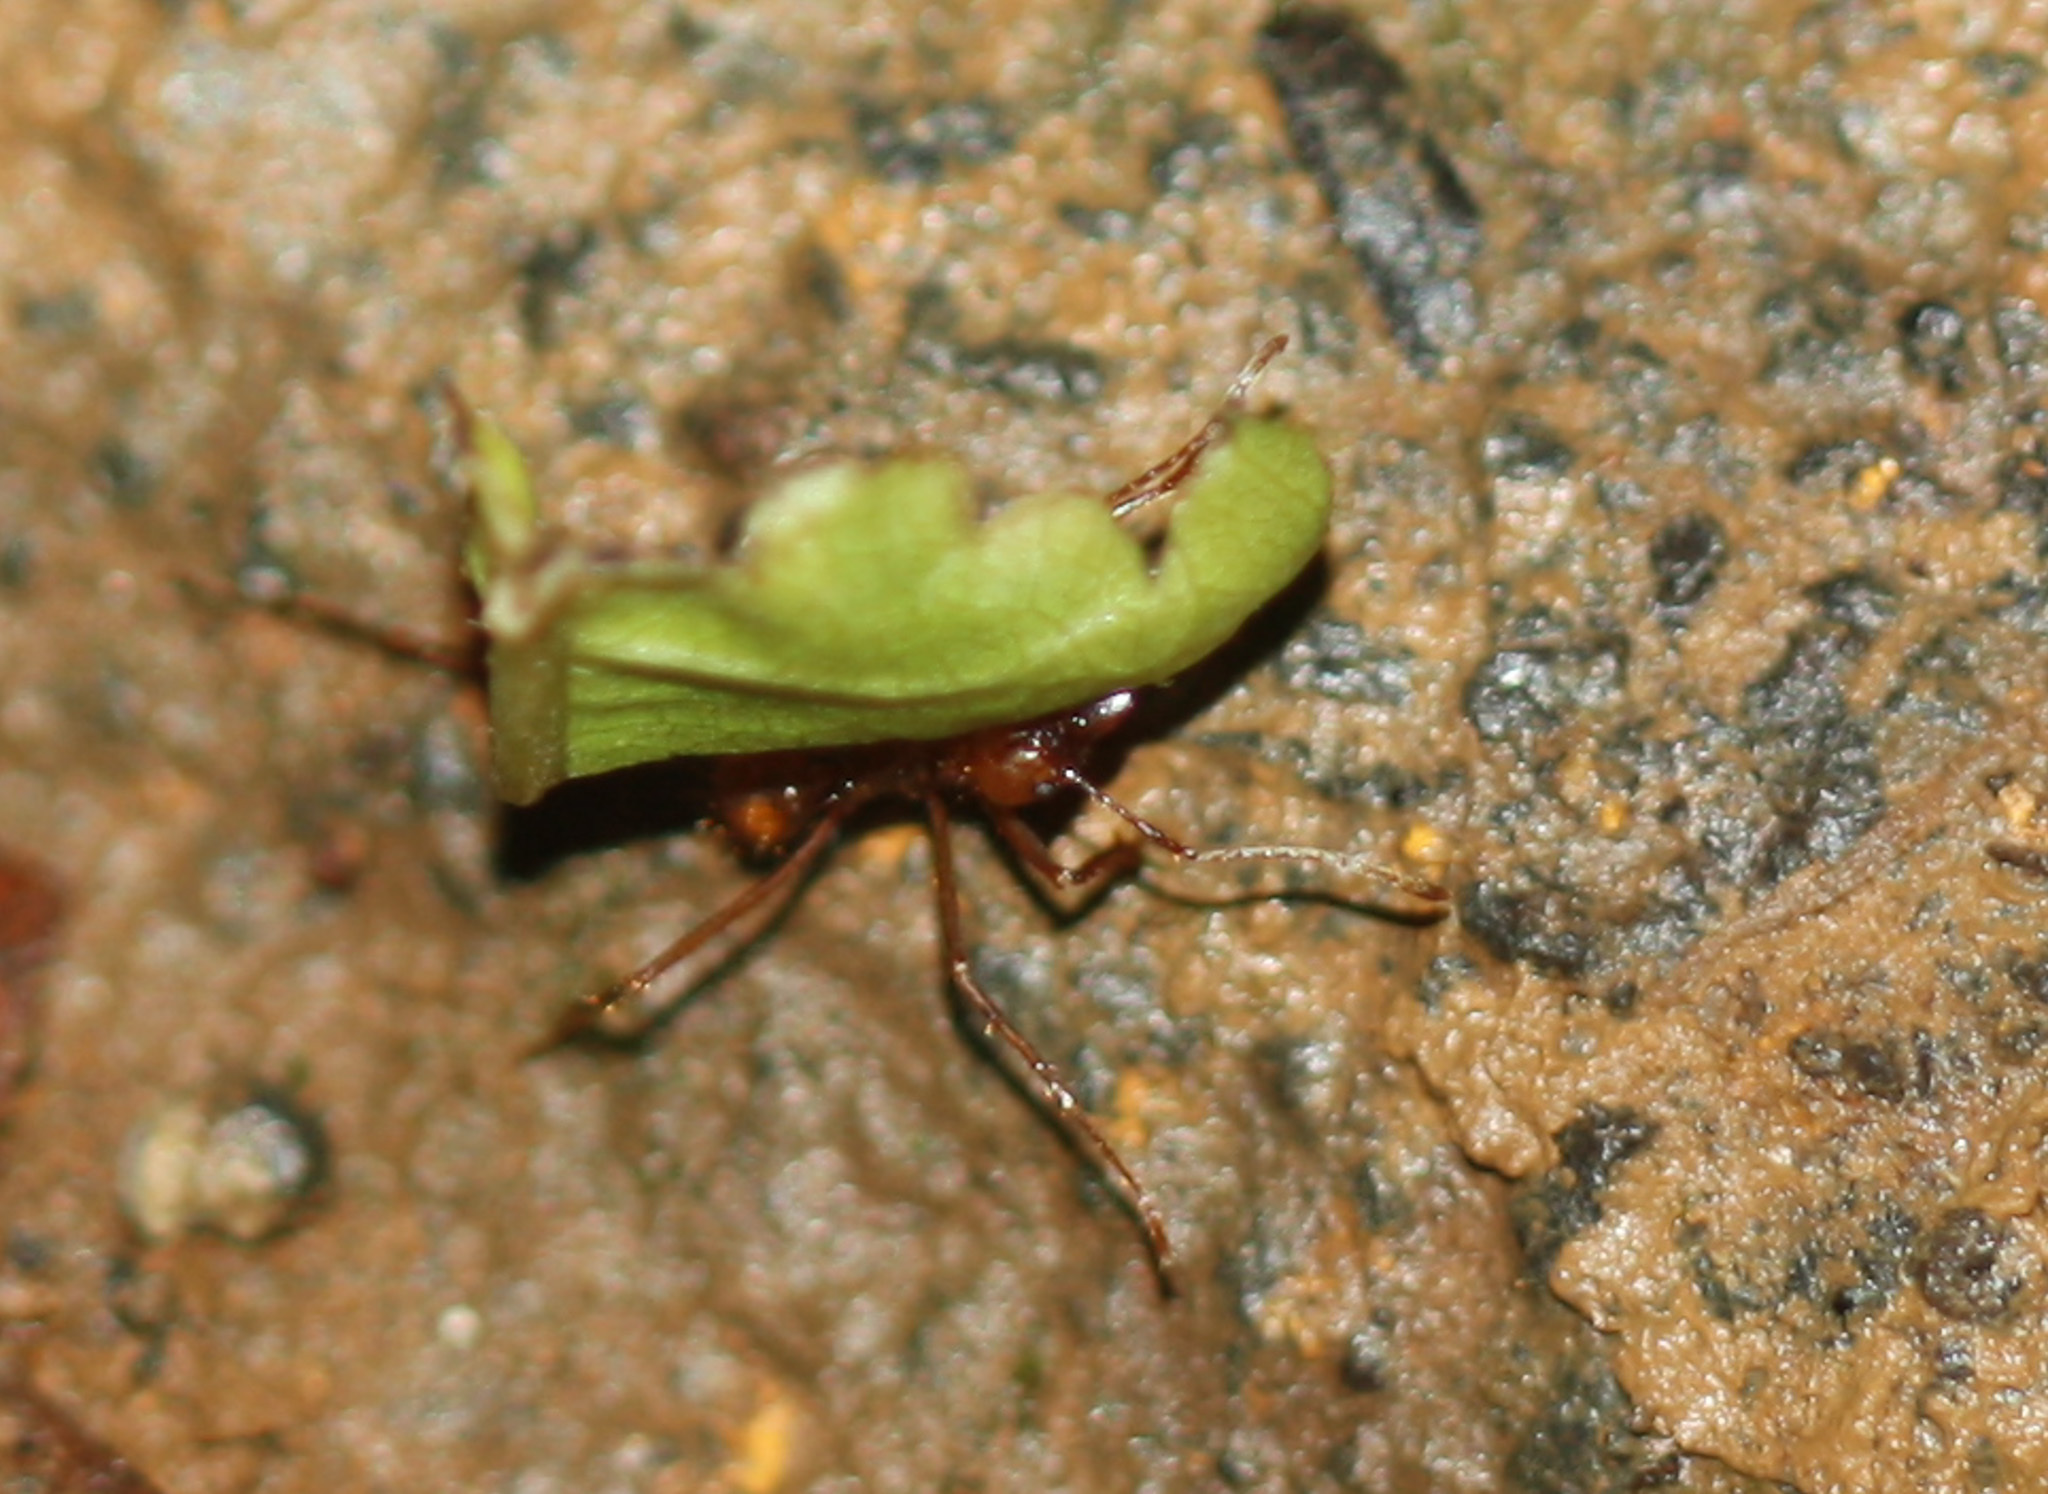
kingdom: Animalia
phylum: Arthropoda
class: Insecta
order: Hymenoptera
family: Formicidae
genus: Atta
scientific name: Atta cephalotes
